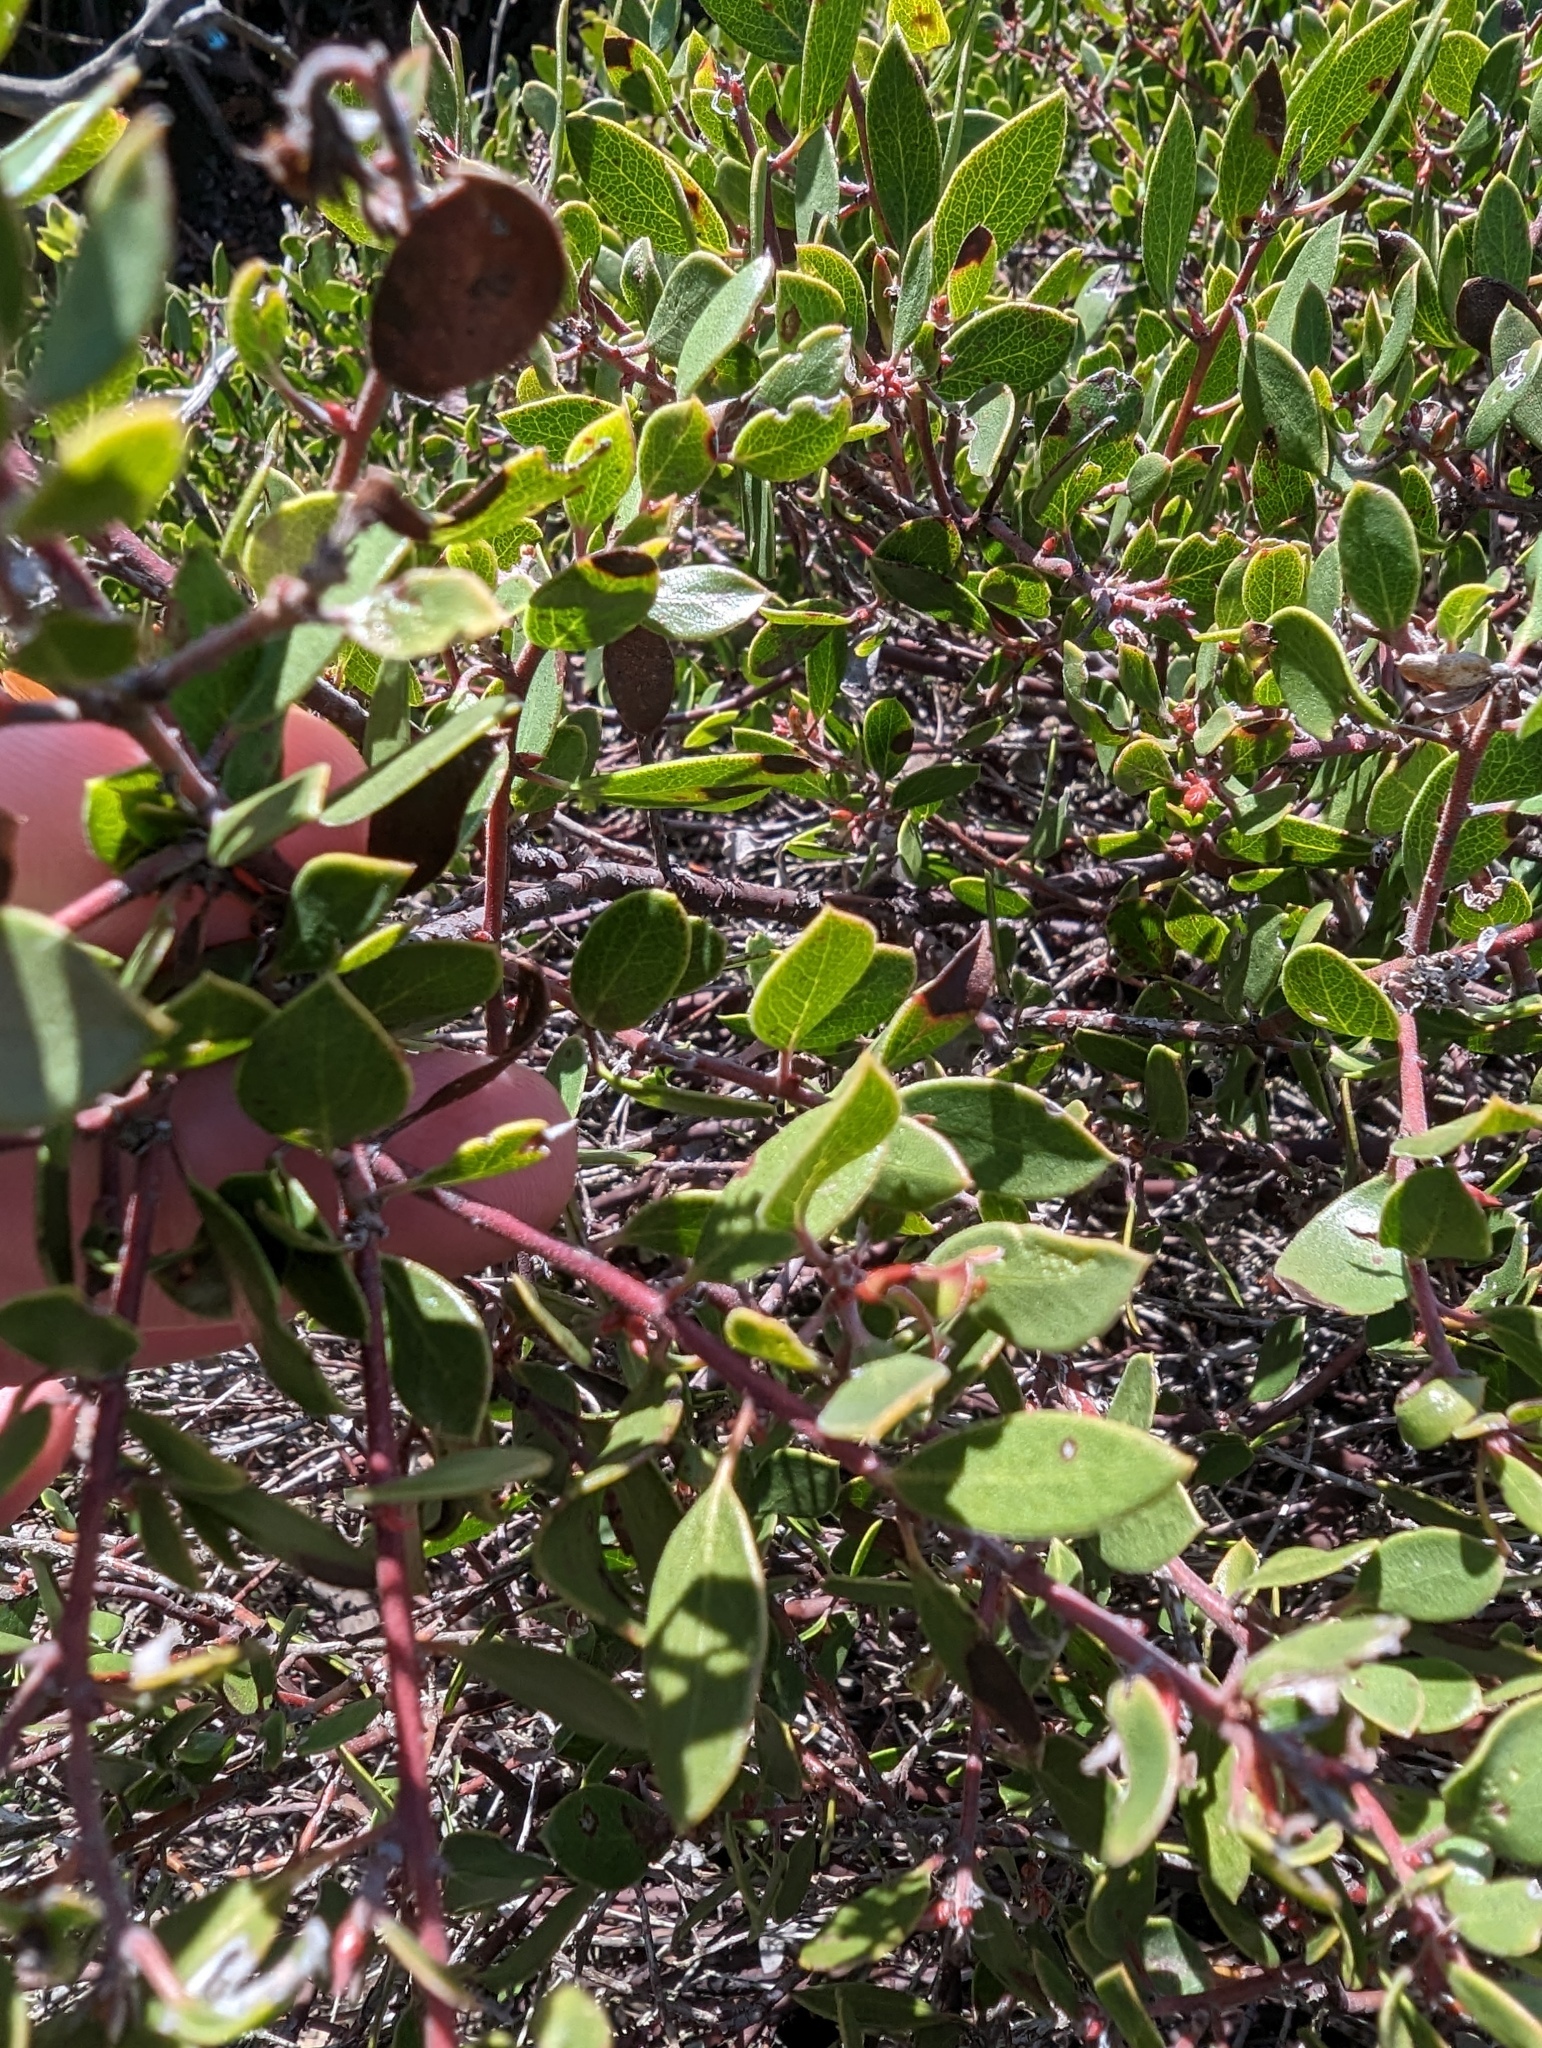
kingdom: Plantae
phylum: Tracheophyta
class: Magnoliopsida
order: Ericales
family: Ericaceae
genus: Arctostaphylos
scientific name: Arctostaphylos hookeri
